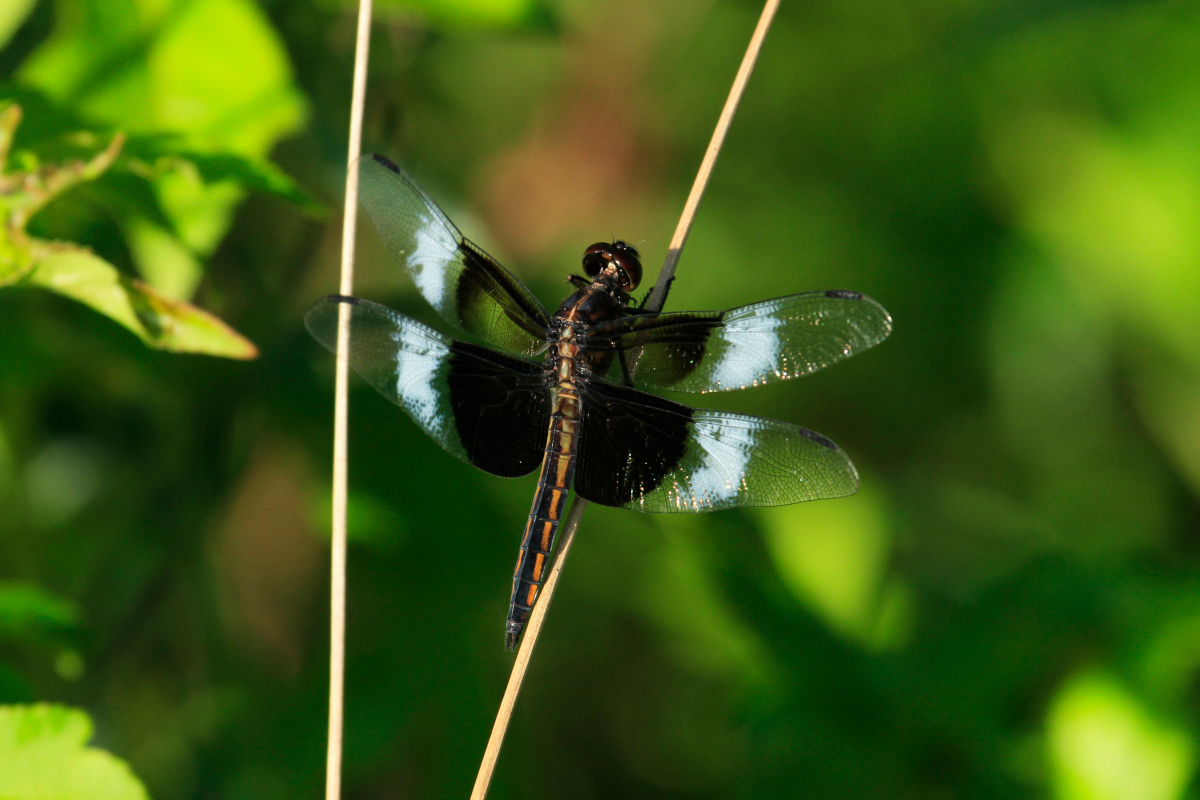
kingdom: Animalia
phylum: Arthropoda
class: Insecta
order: Odonata
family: Libellulidae
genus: Libellula
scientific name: Libellula luctuosa
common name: Widow skimmer
